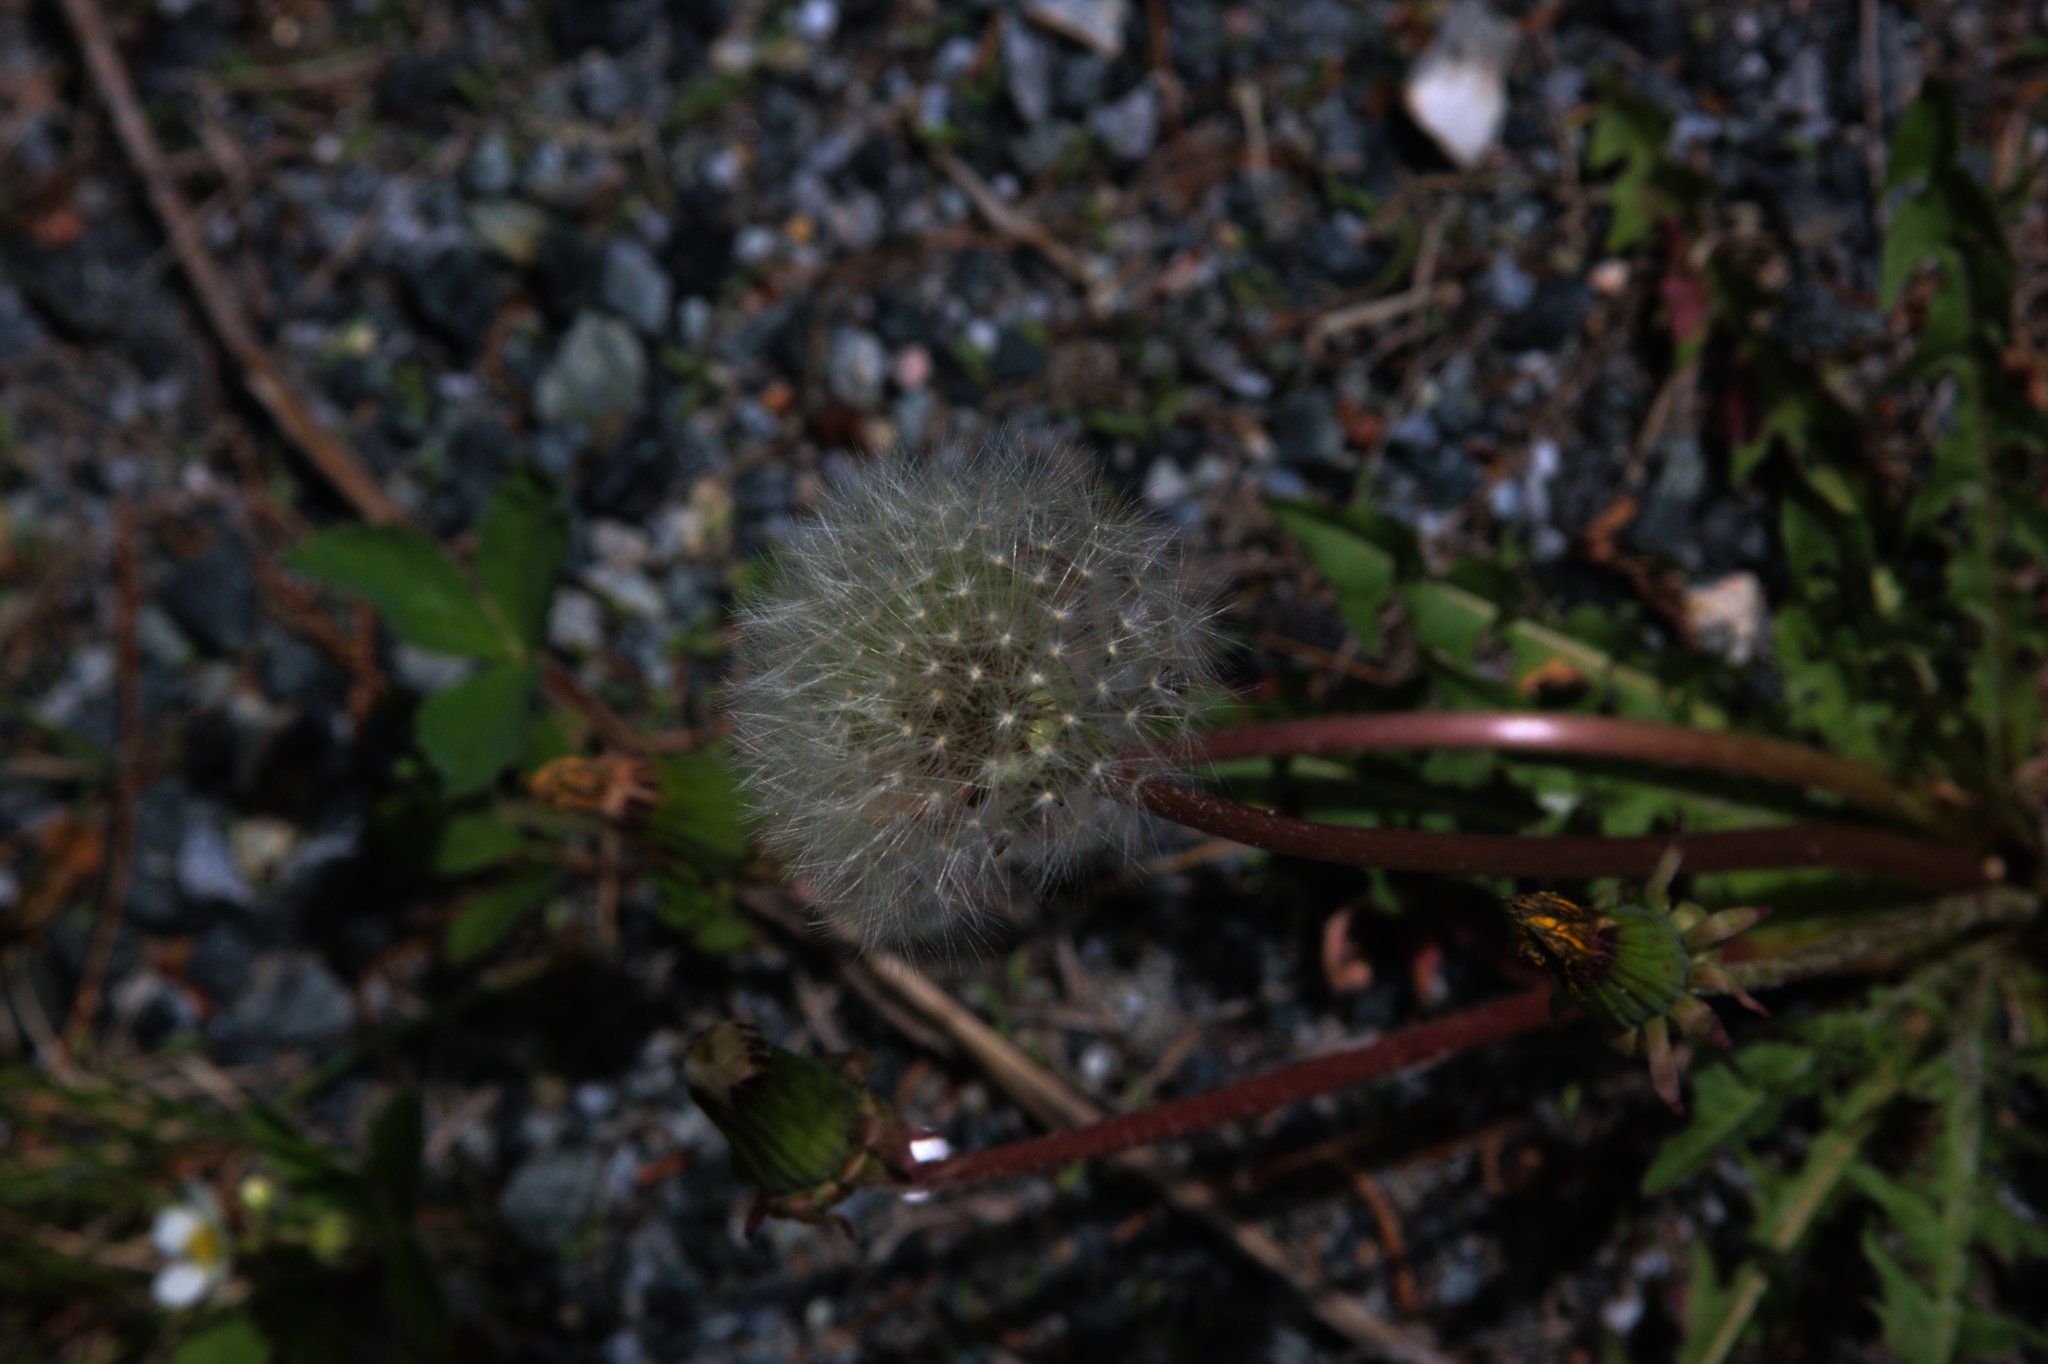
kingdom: Plantae
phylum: Tracheophyta
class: Magnoliopsida
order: Asterales
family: Asteraceae
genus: Taraxacum
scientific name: Taraxacum officinale
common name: Common dandelion
